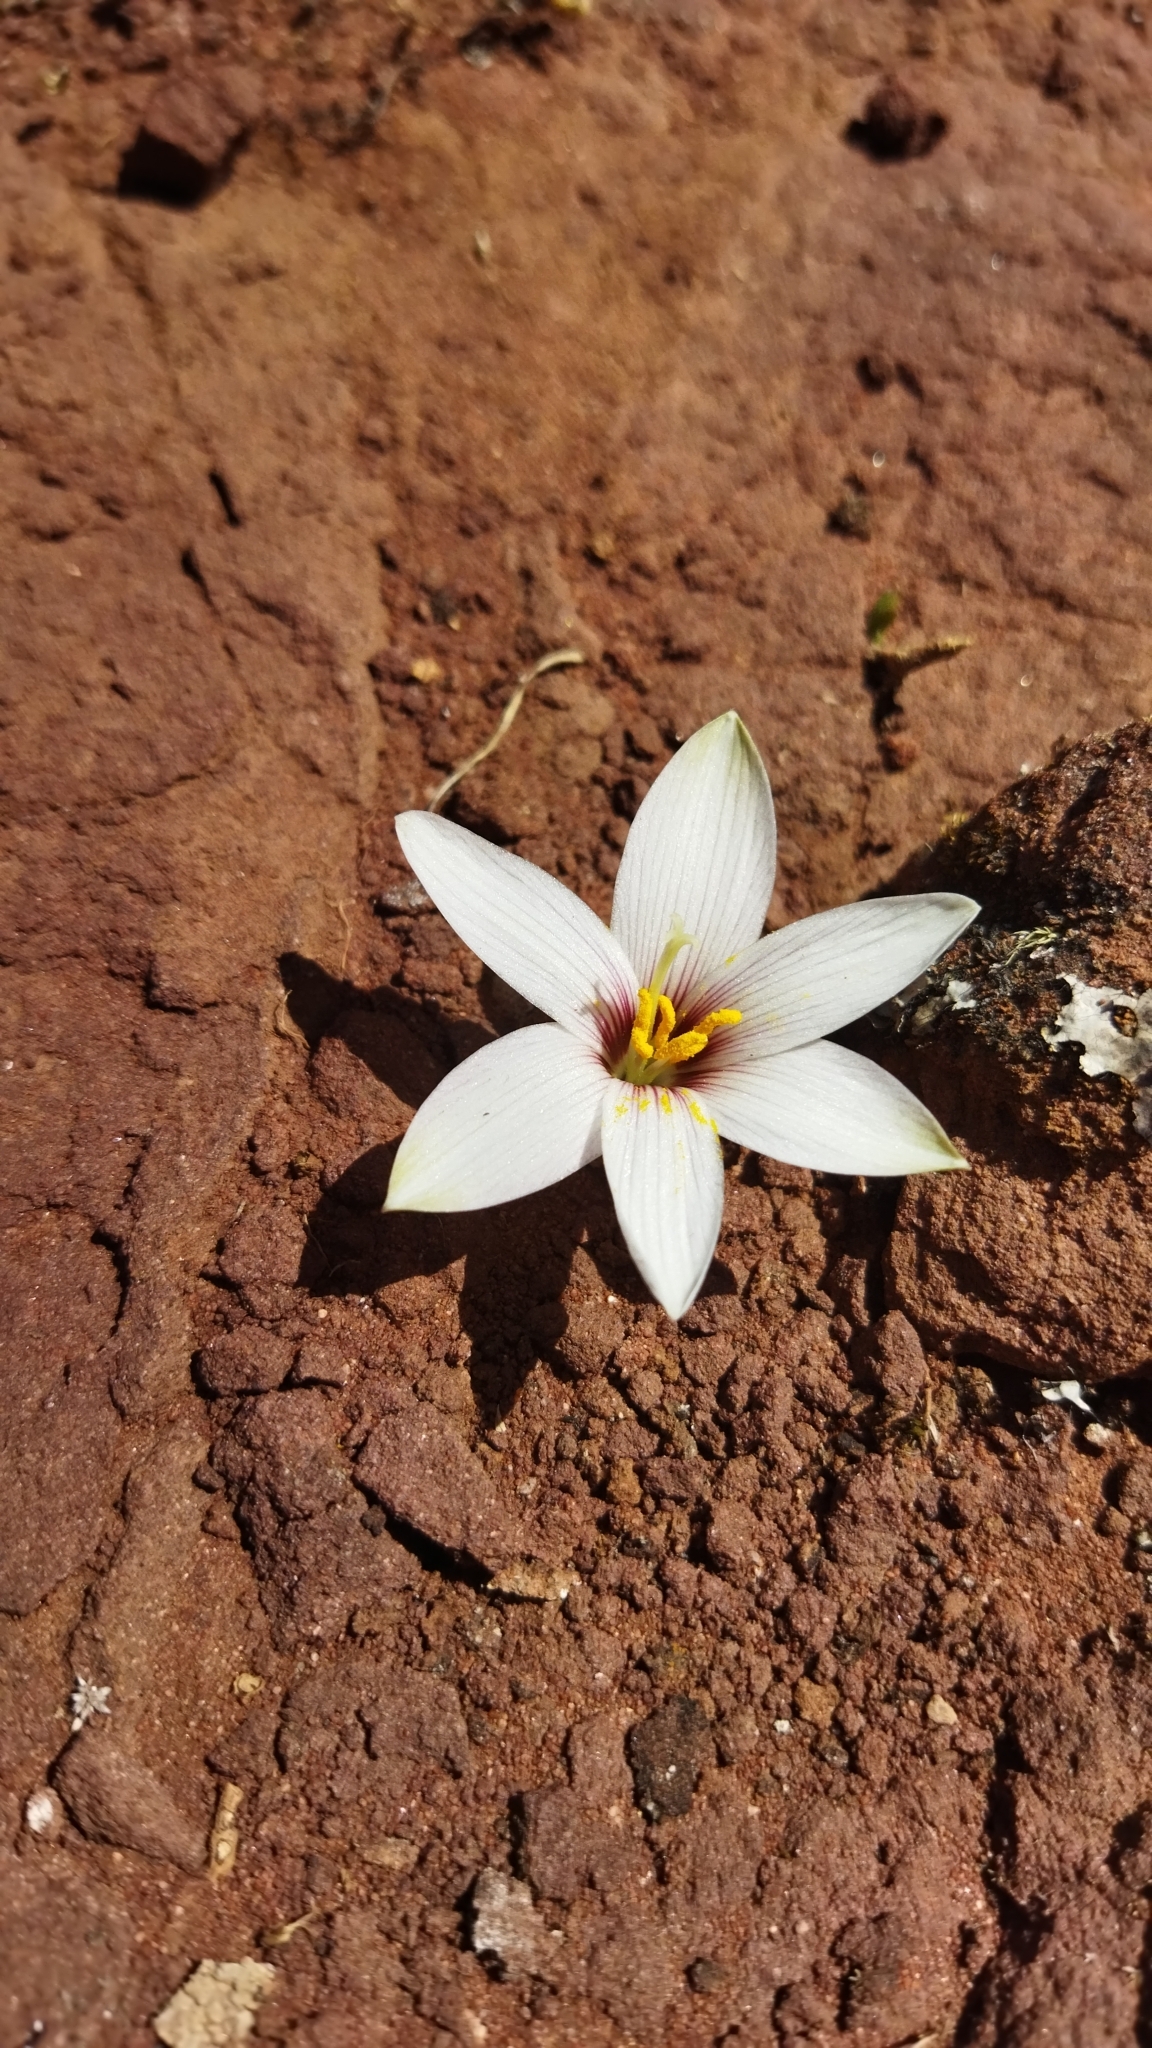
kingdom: Plantae
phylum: Tracheophyta
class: Liliopsida
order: Asparagales
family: Amaryllidaceae
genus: Zephyranthes
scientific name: Zephyranthes andina
